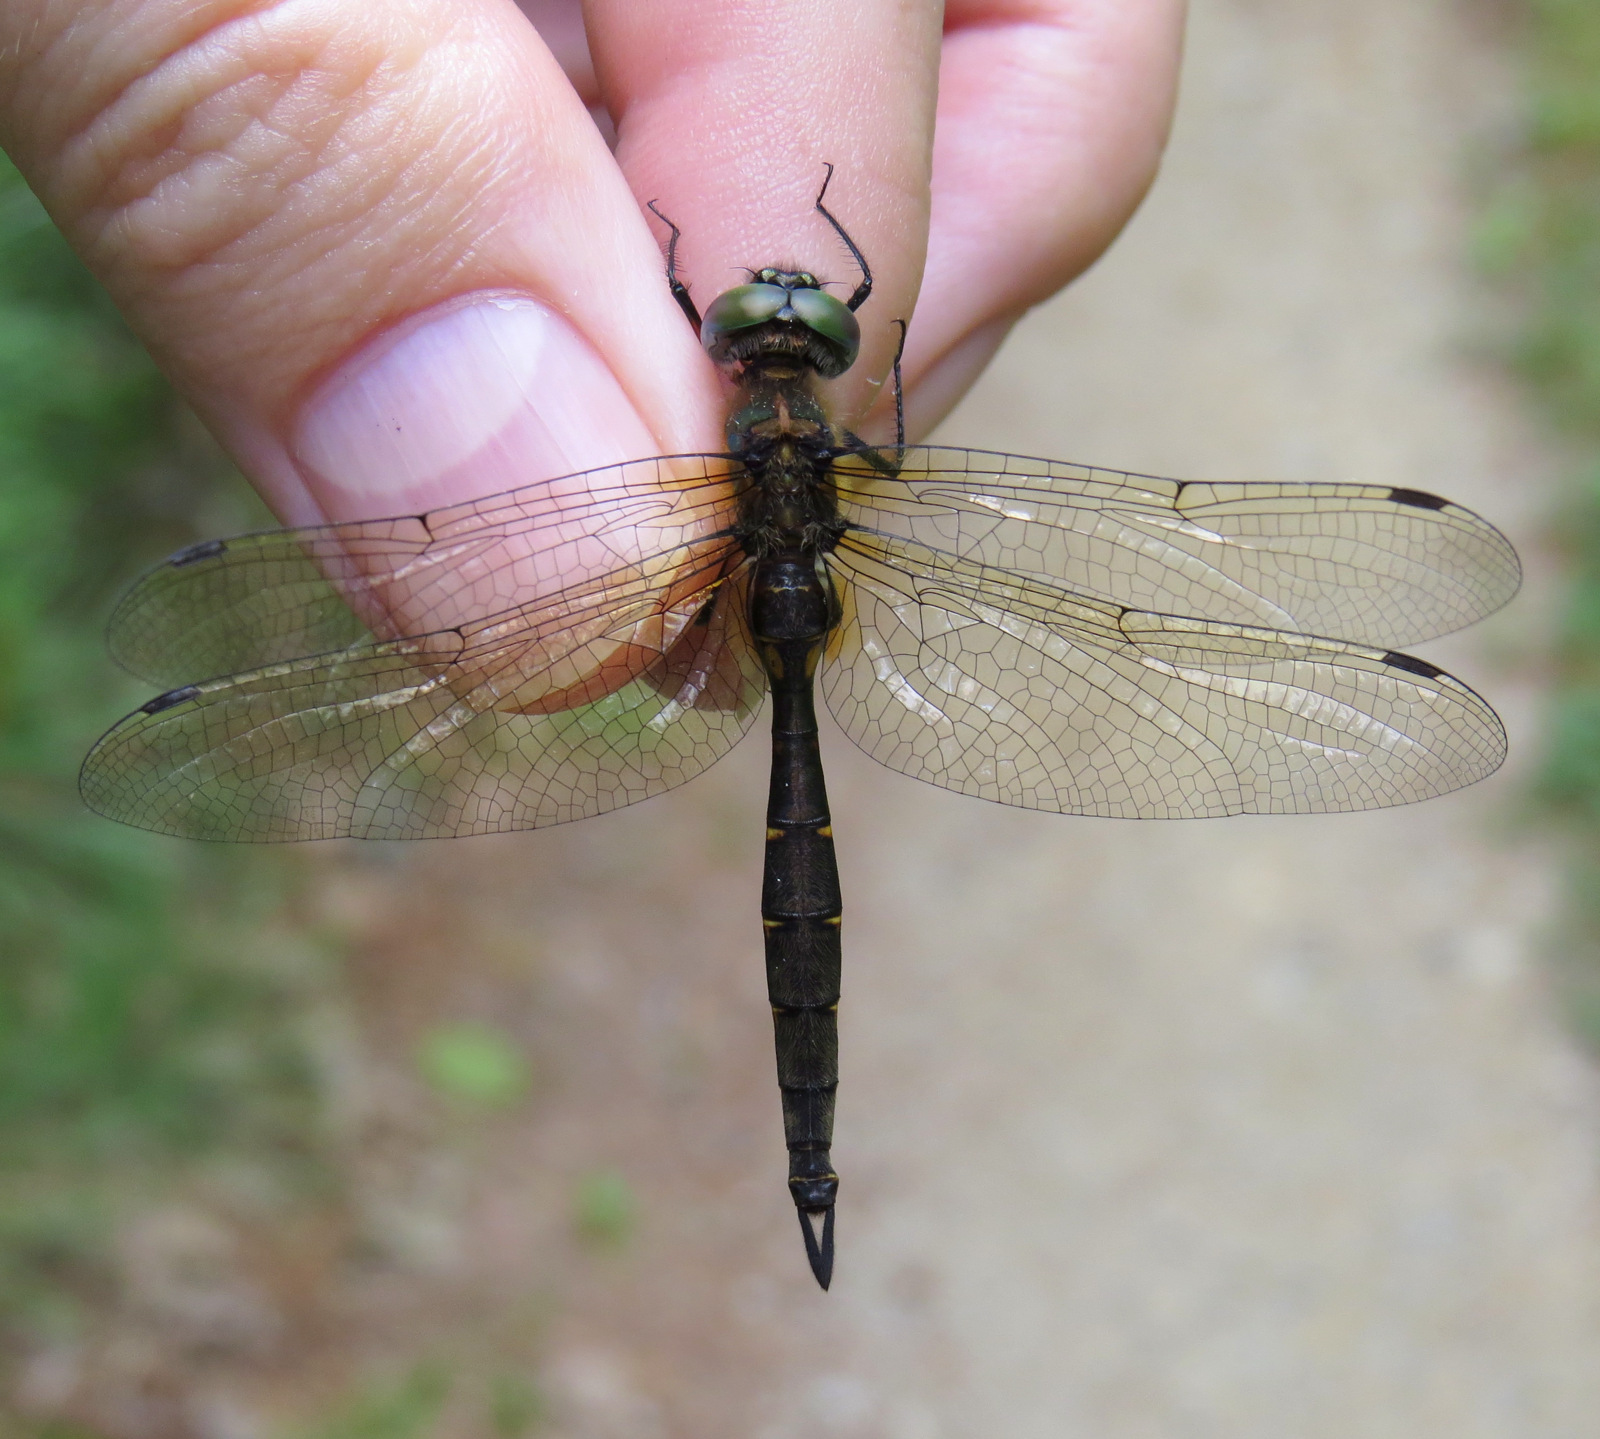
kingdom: Animalia
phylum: Arthropoda
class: Insecta
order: Odonata
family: Corduliidae
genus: Somatochlora
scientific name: Somatochlora walshii
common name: Brush-tipped emerald
